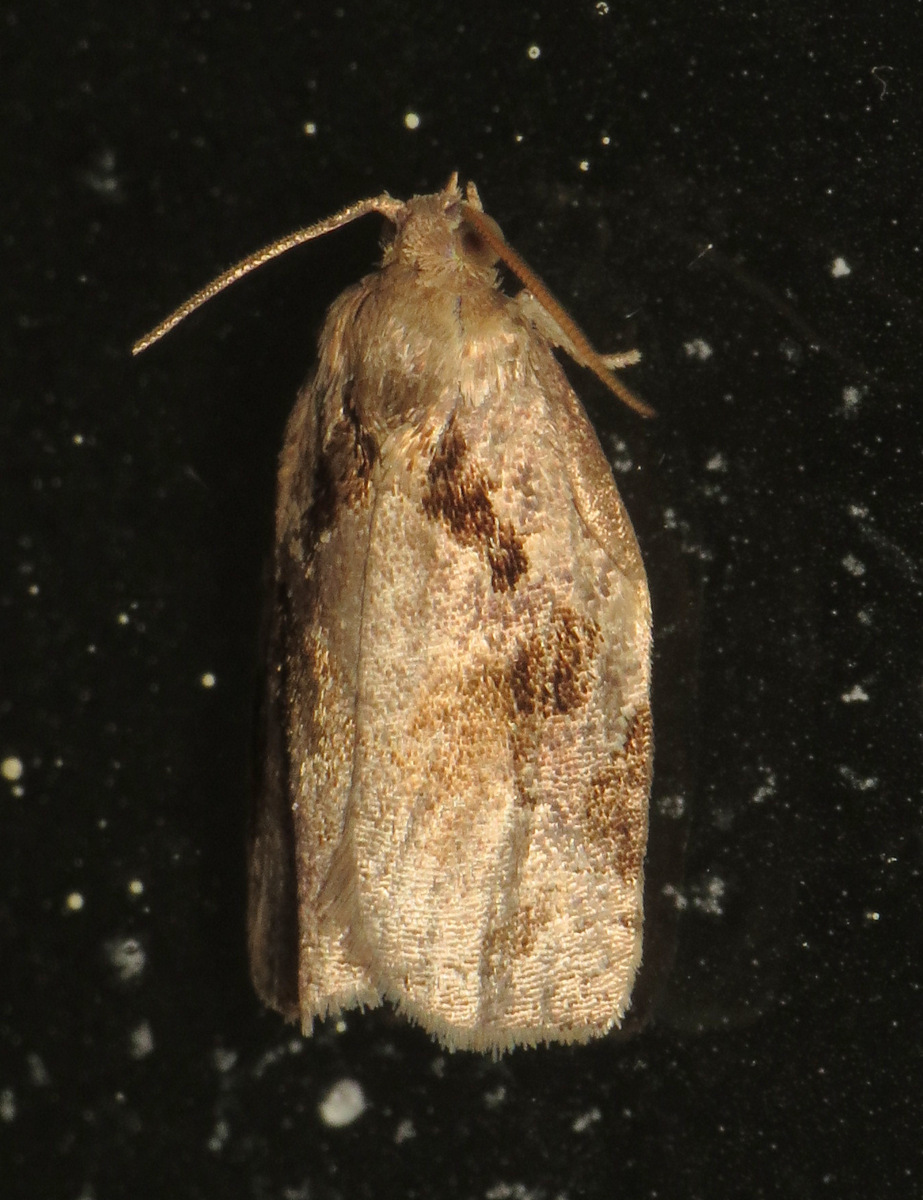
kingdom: Animalia
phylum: Arthropoda
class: Insecta
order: Lepidoptera
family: Tortricidae
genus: Archips
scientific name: Archips grisea
